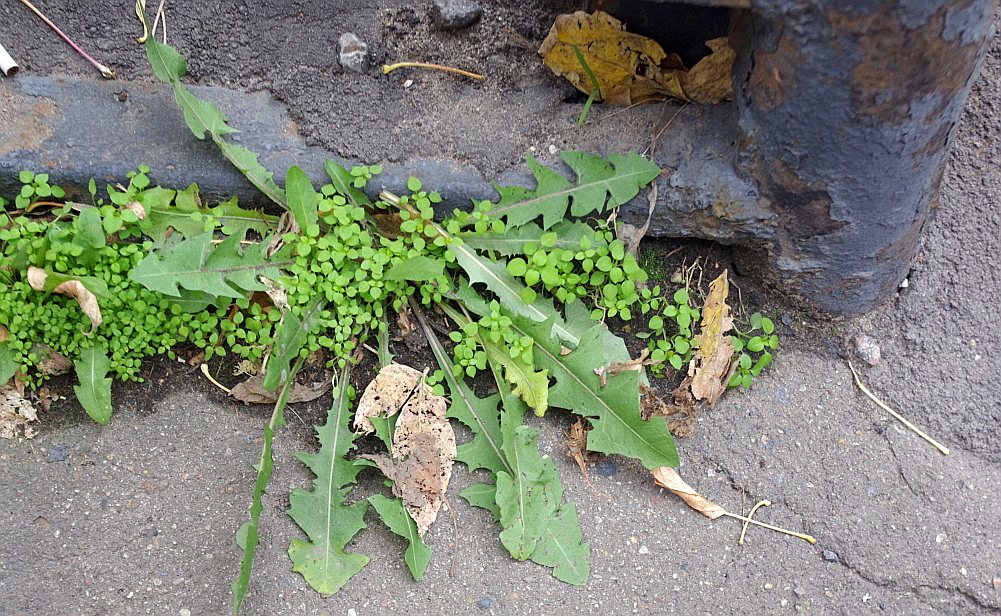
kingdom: Plantae
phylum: Tracheophyta
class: Magnoliopsida
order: Asterales
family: Asteraceae
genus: Taraxacum
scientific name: Taraxacum officinale
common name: Common dandelion
